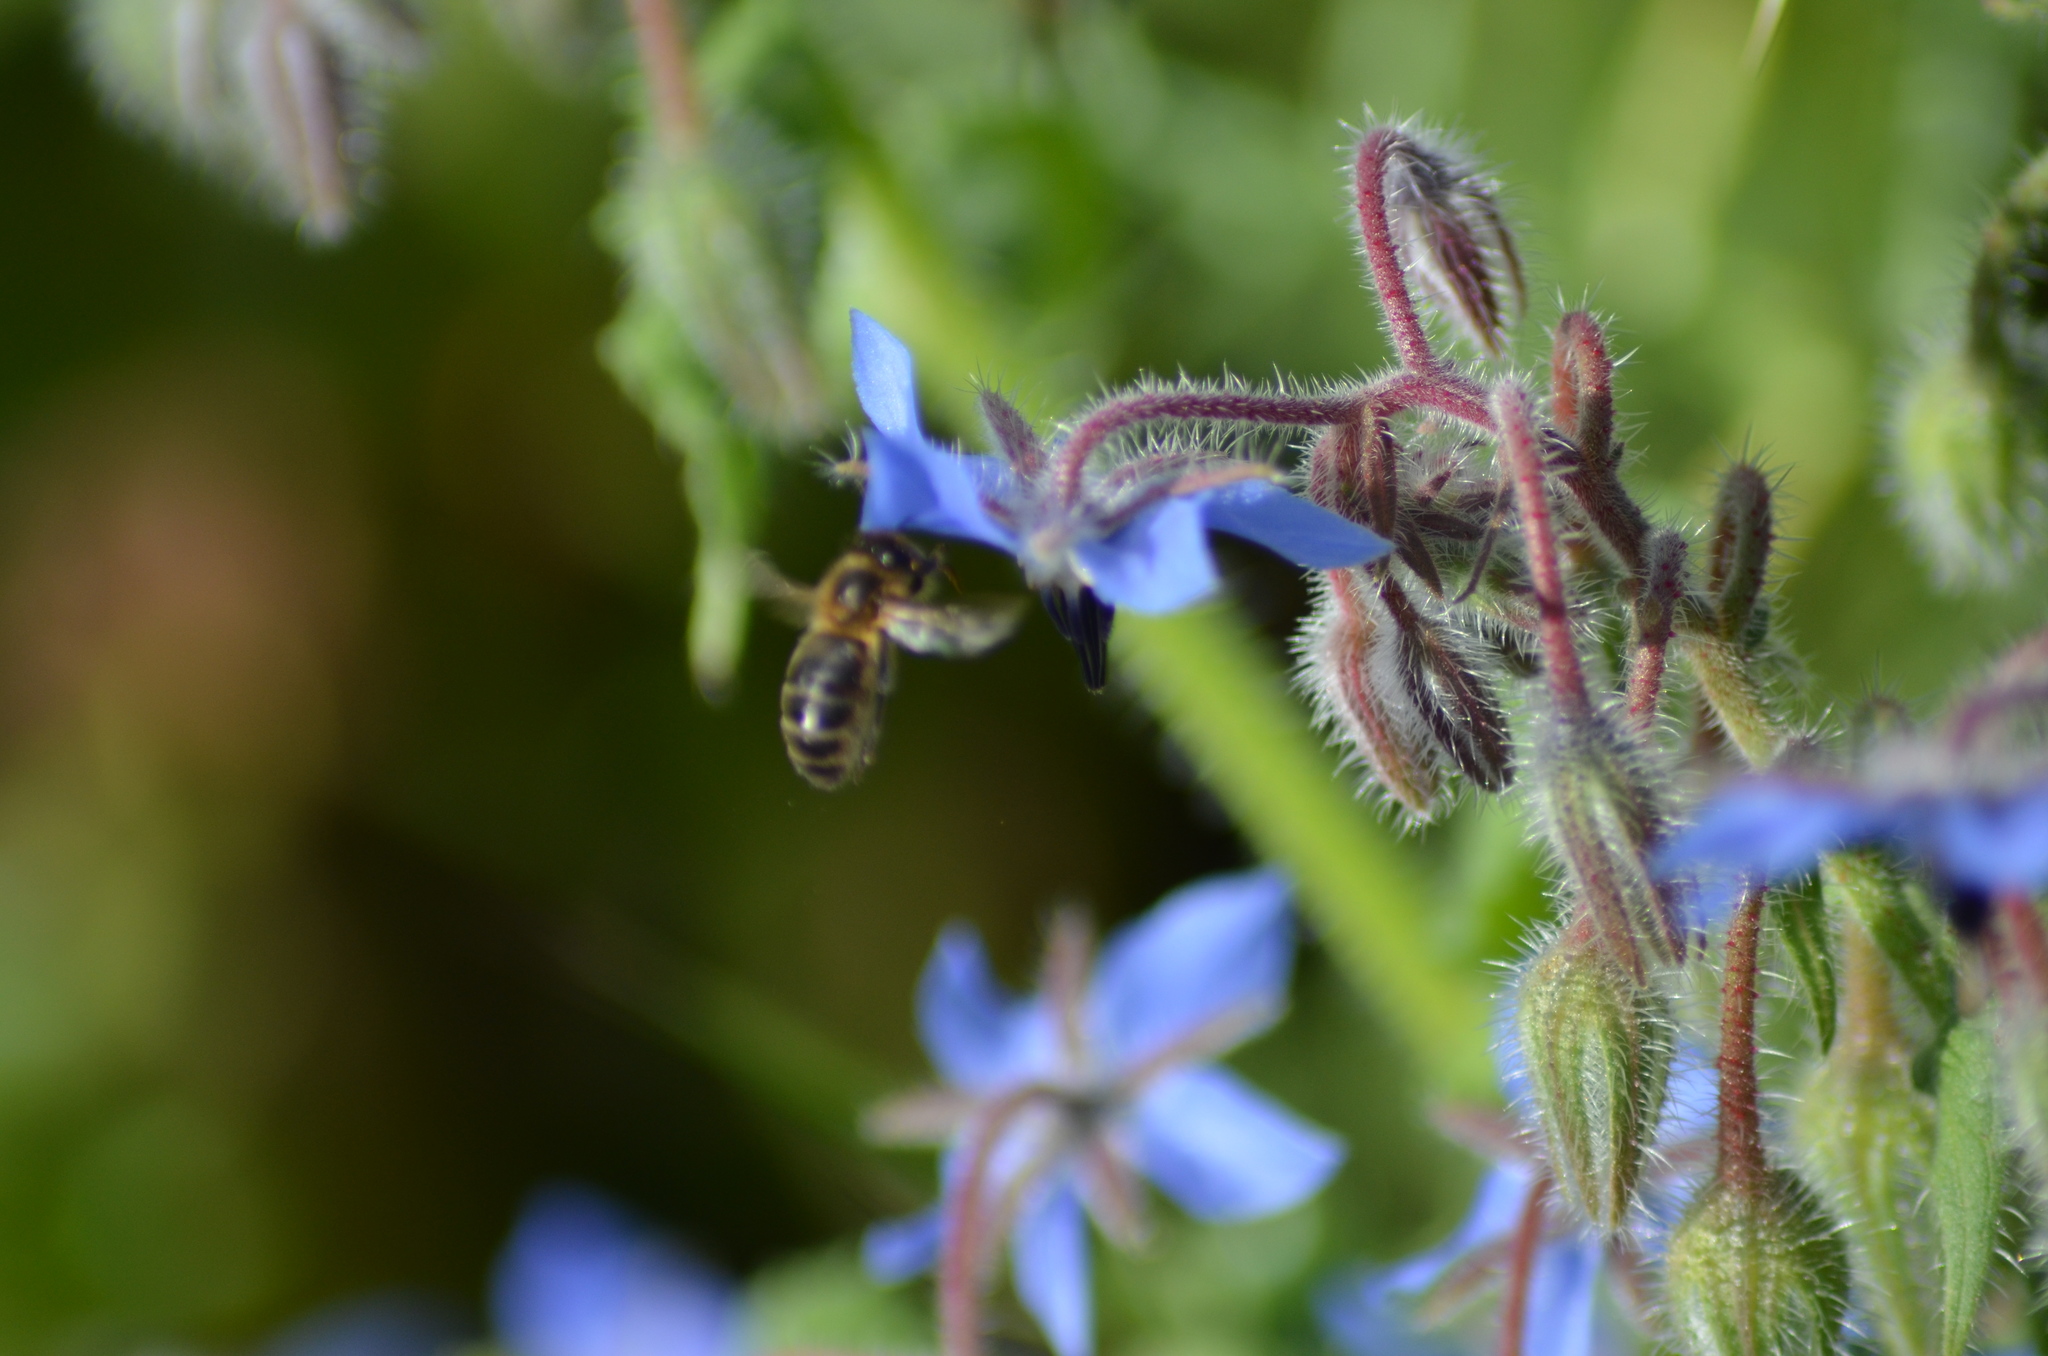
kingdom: Plantae
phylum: Tracheophyta
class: Magnoliopsida
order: Boraginales
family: Boraginaceae
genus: Borago
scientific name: Borago officinalis
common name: Borage
